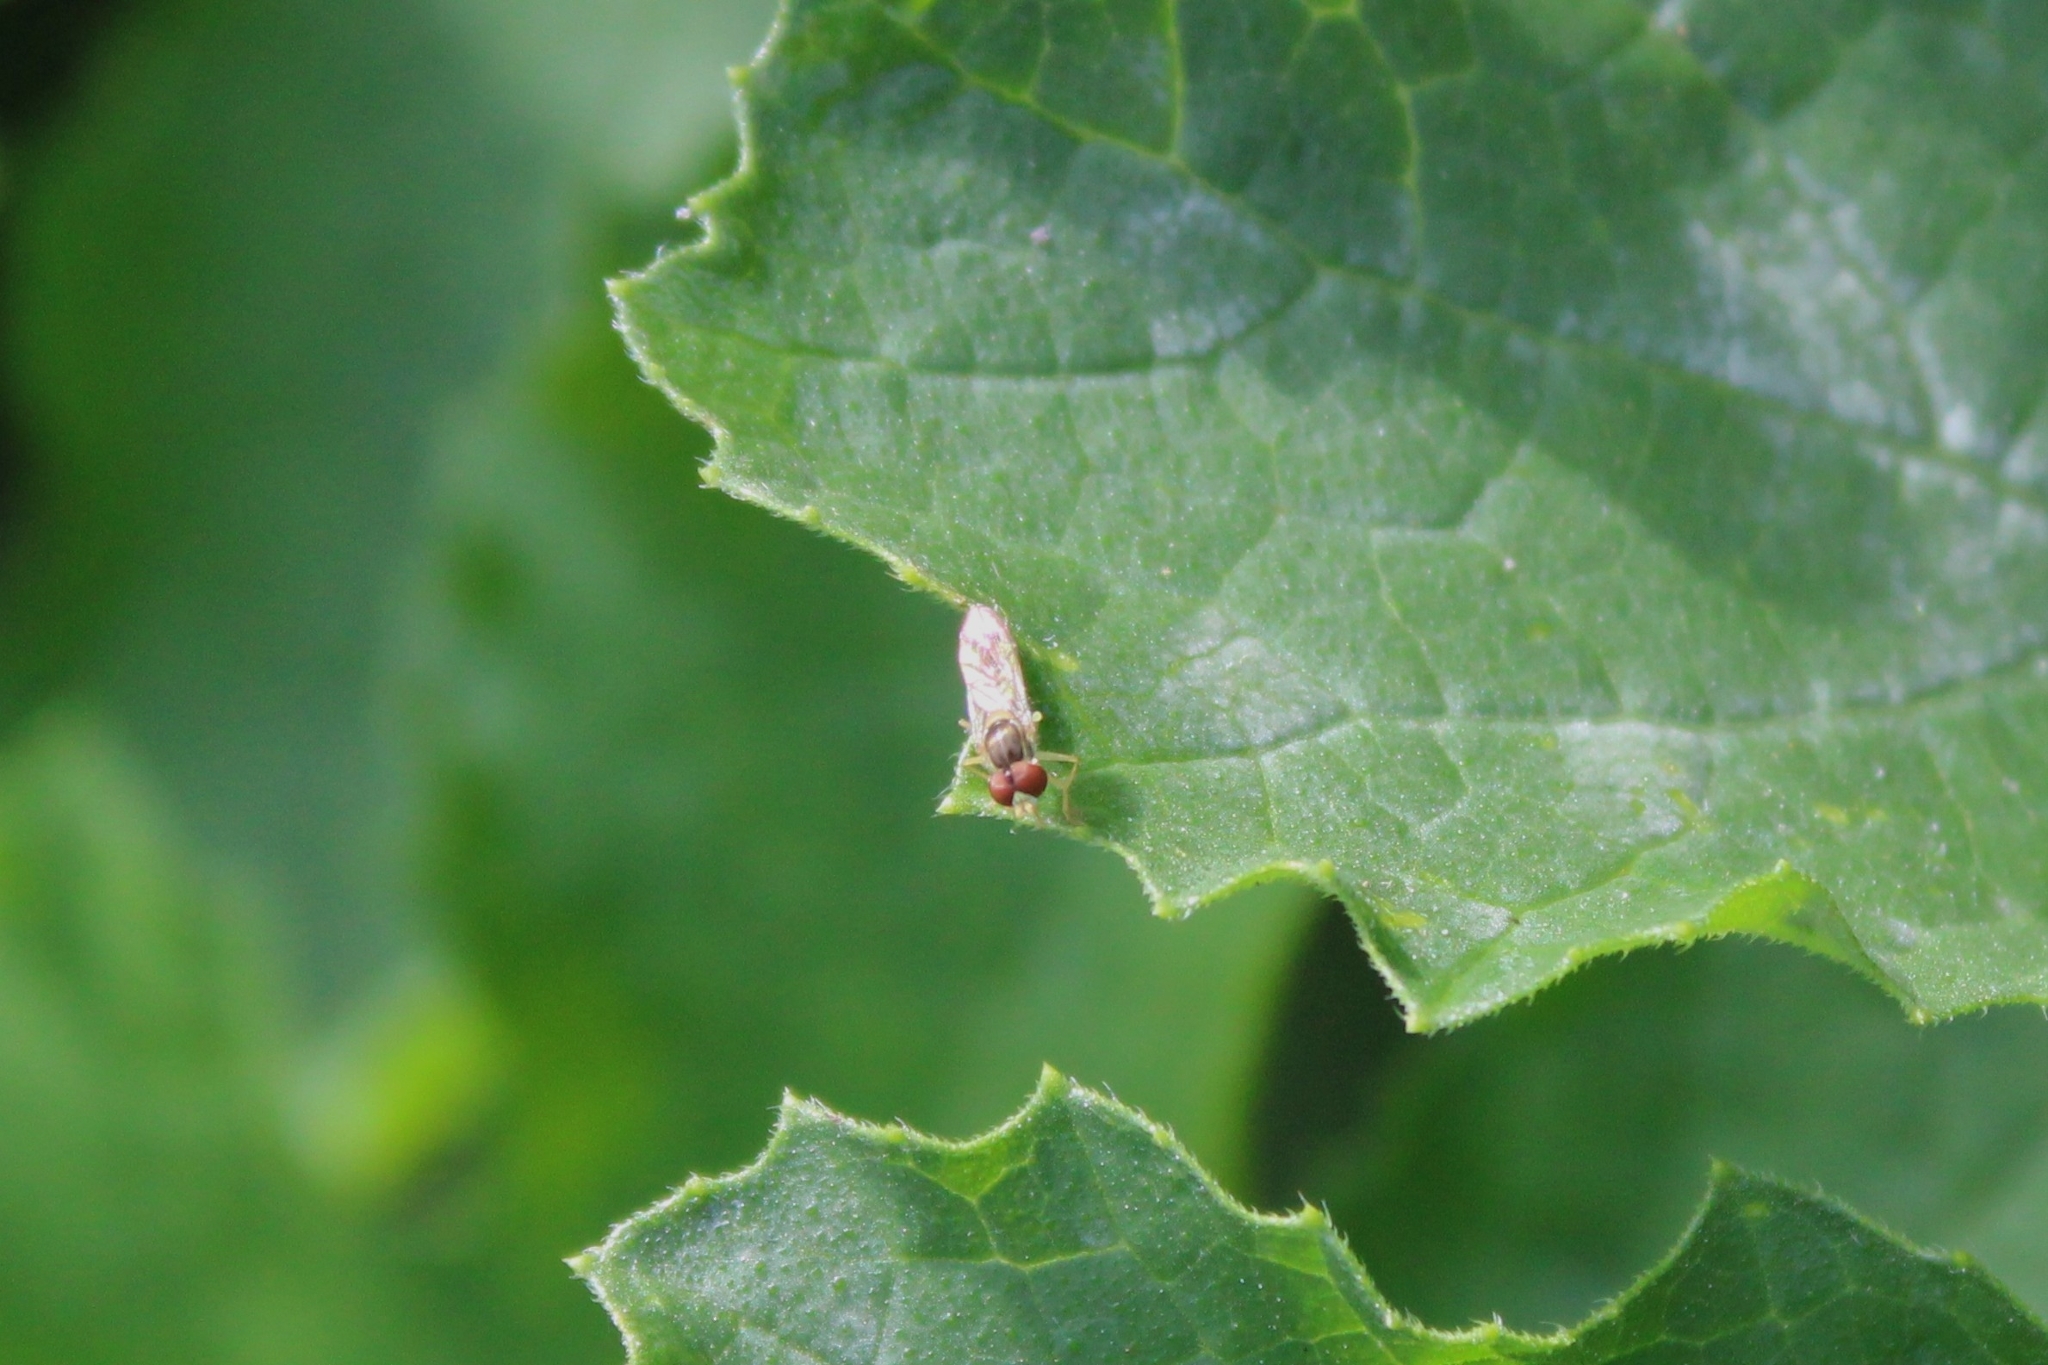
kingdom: Animalia
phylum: Arthropoda
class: Insecta
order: Diptera
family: Syrphidae
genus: Toxomerus
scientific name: Toxomerus marginatus
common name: Syrphid fly
